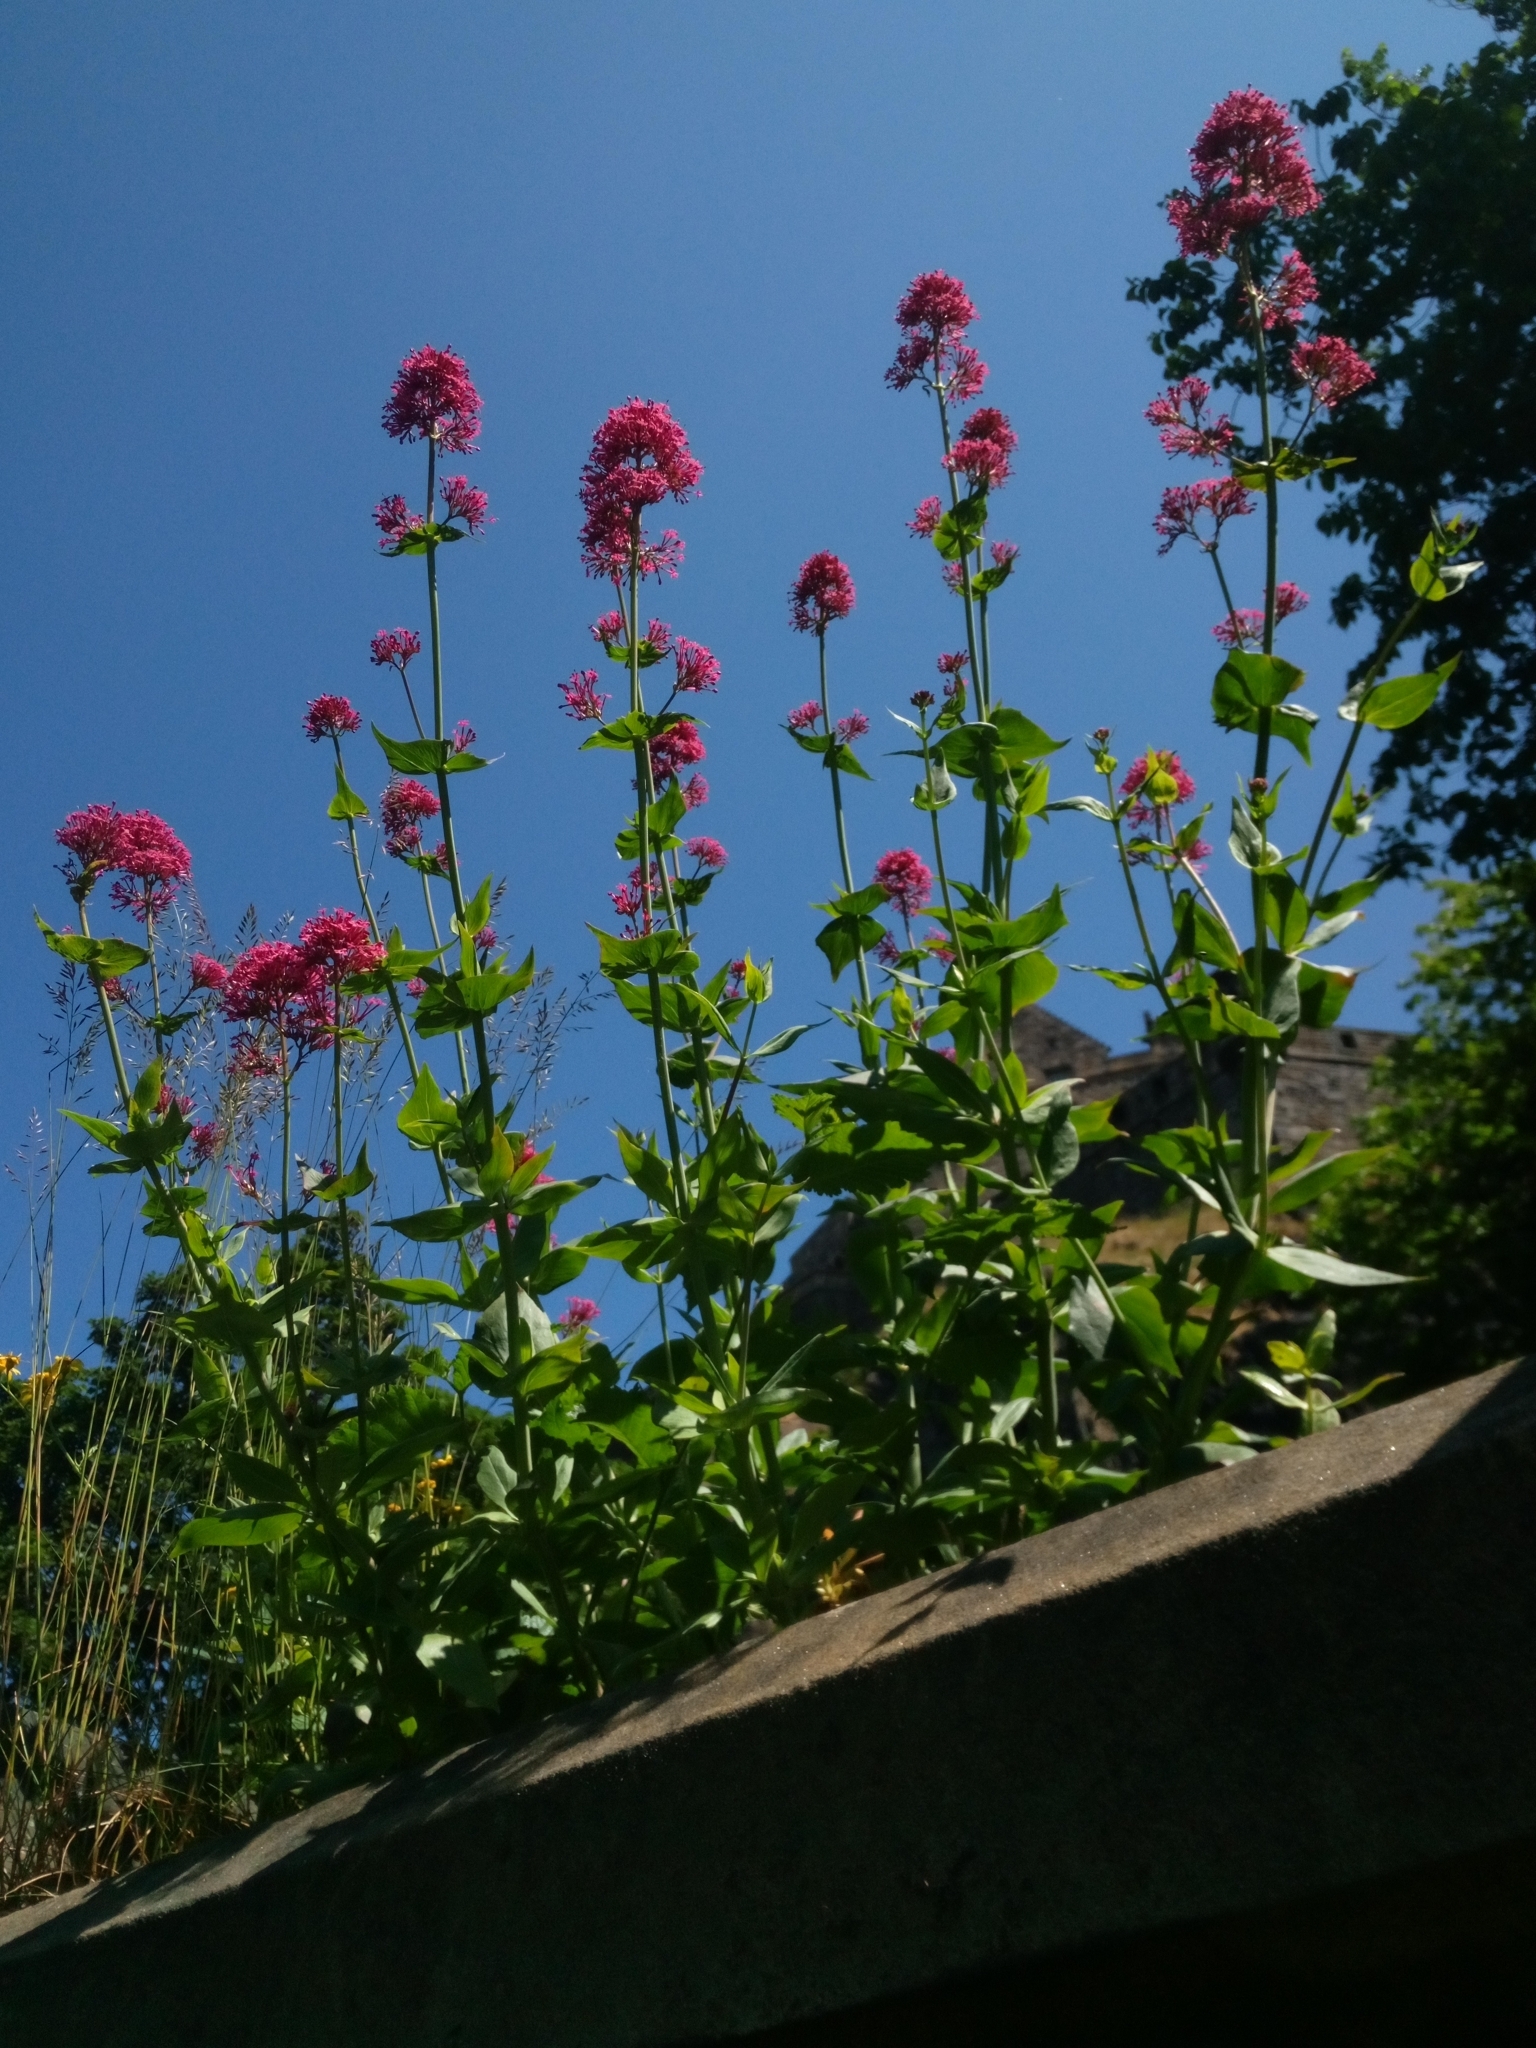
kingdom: Plantae
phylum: Tracheophyta
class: Magnoliopsida
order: Dipsacales
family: Caprifoliaceae
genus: Centranthus
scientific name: Centranthus ruber
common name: Red valerian
